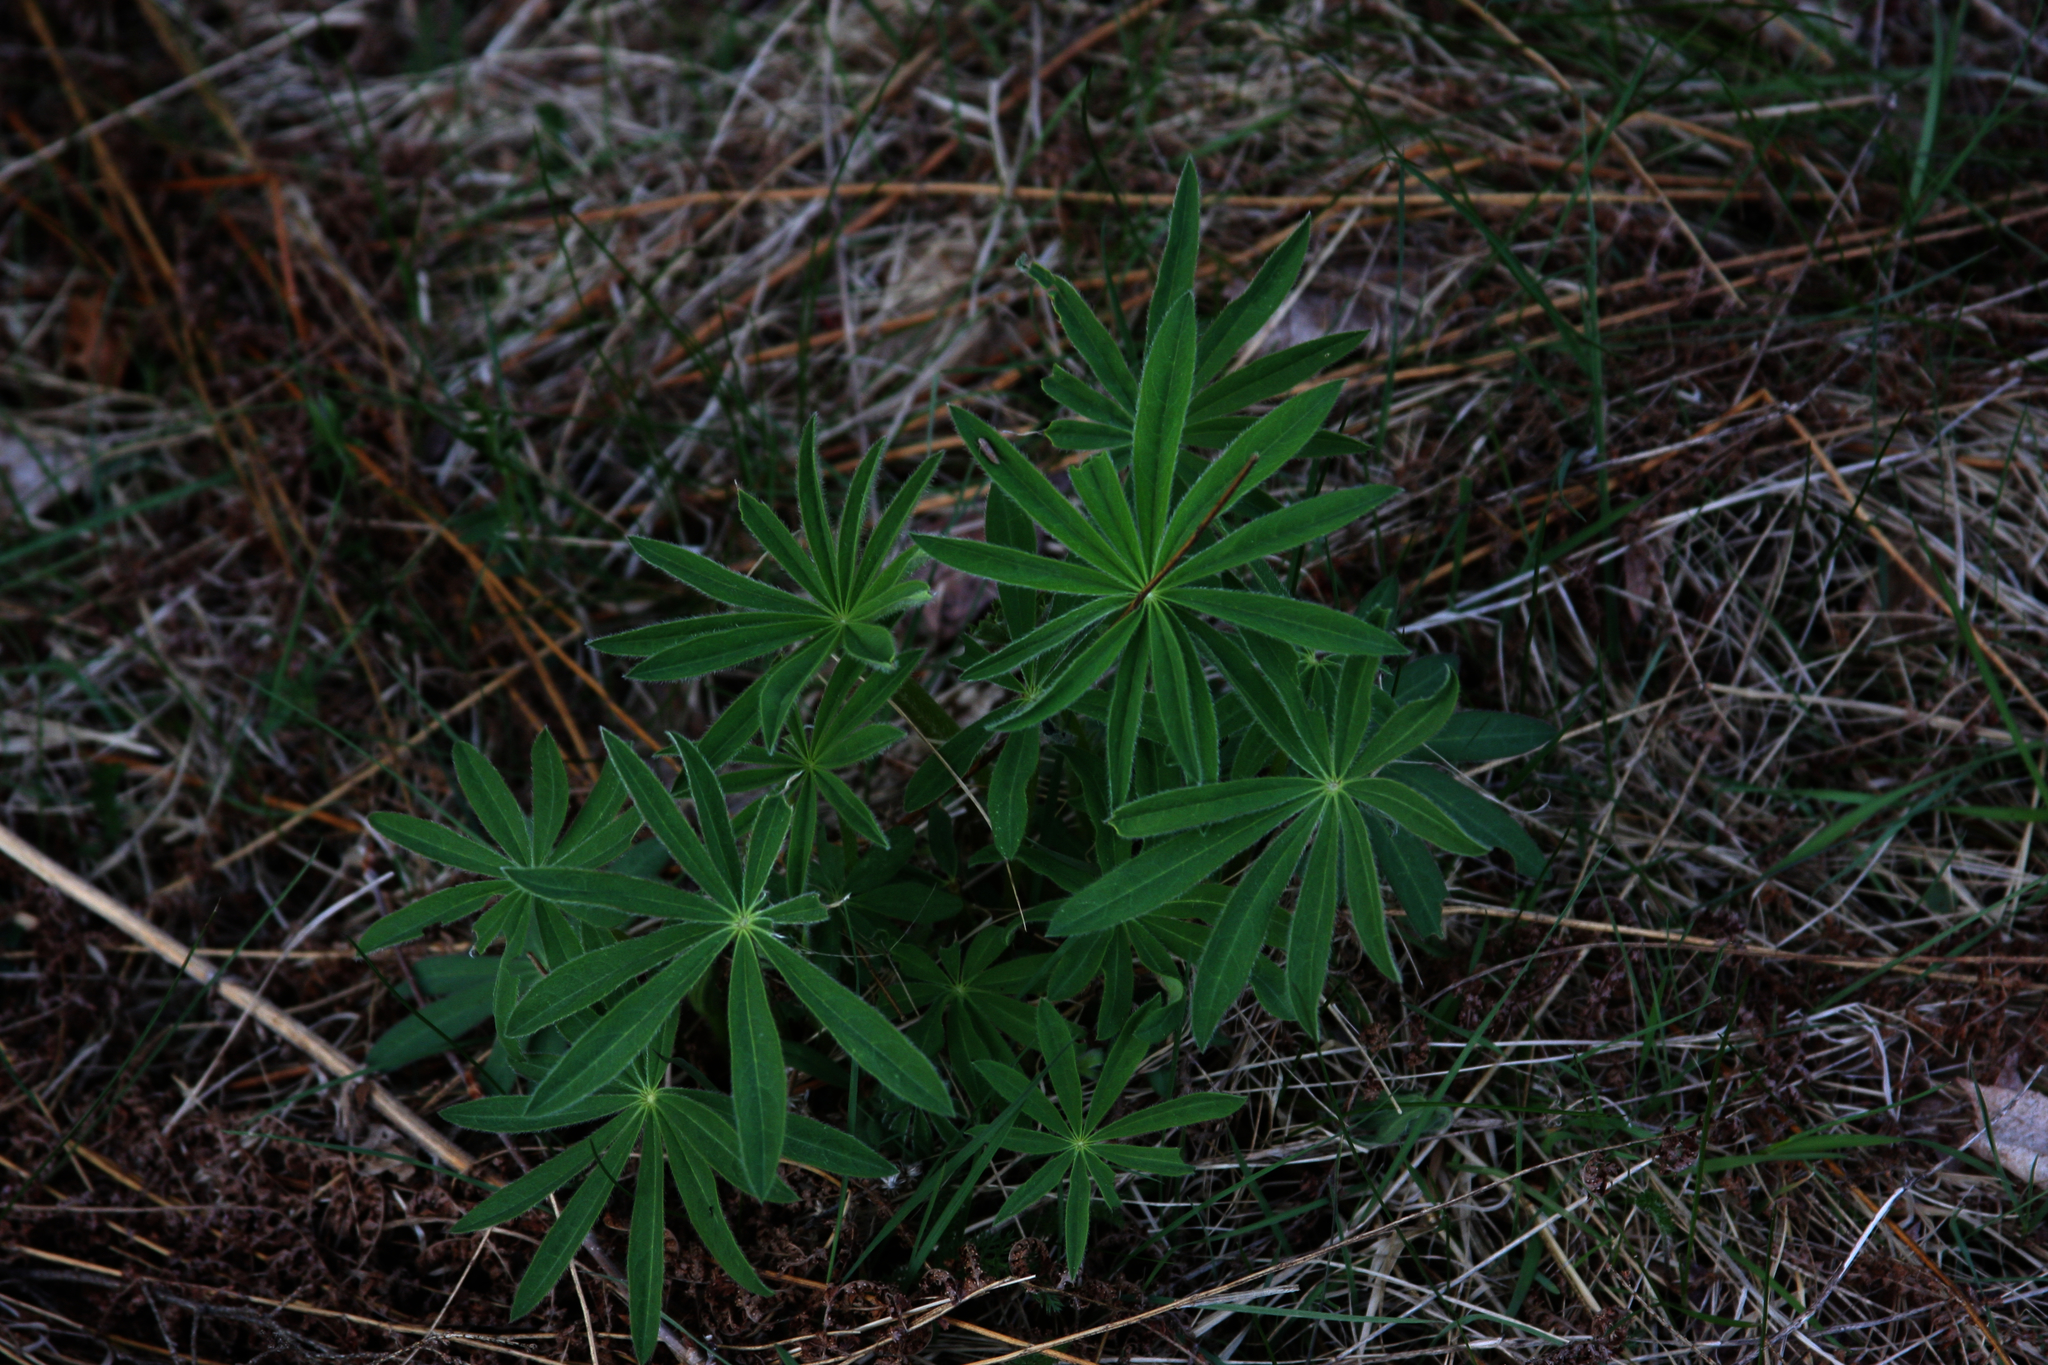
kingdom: Plantae
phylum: Tracheophyta
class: Magnoliopsida
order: Fabales
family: Fabaceae
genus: Lupinus
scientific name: Lupinus polyphyllus
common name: Garden lupin
